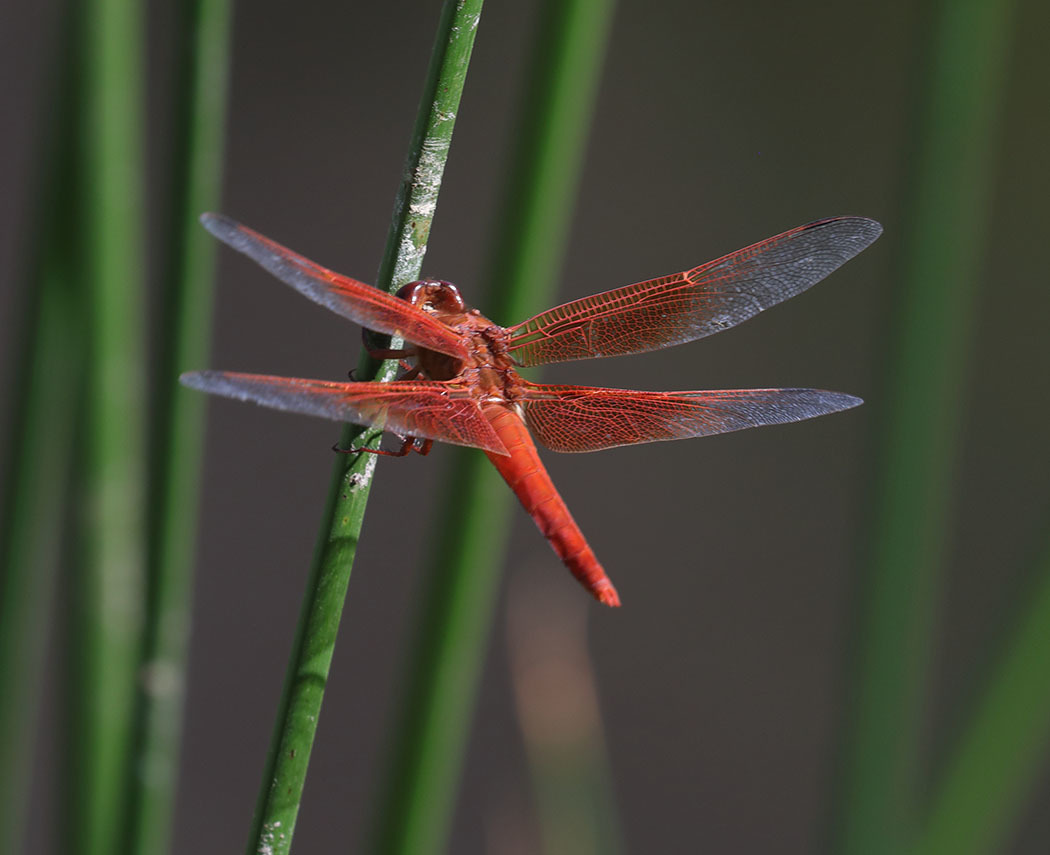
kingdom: Animalia
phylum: Arthropoda
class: Insecta
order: Odonata
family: Libellulidae
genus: Libellula
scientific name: Libellula saturata
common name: Flame skimmer
